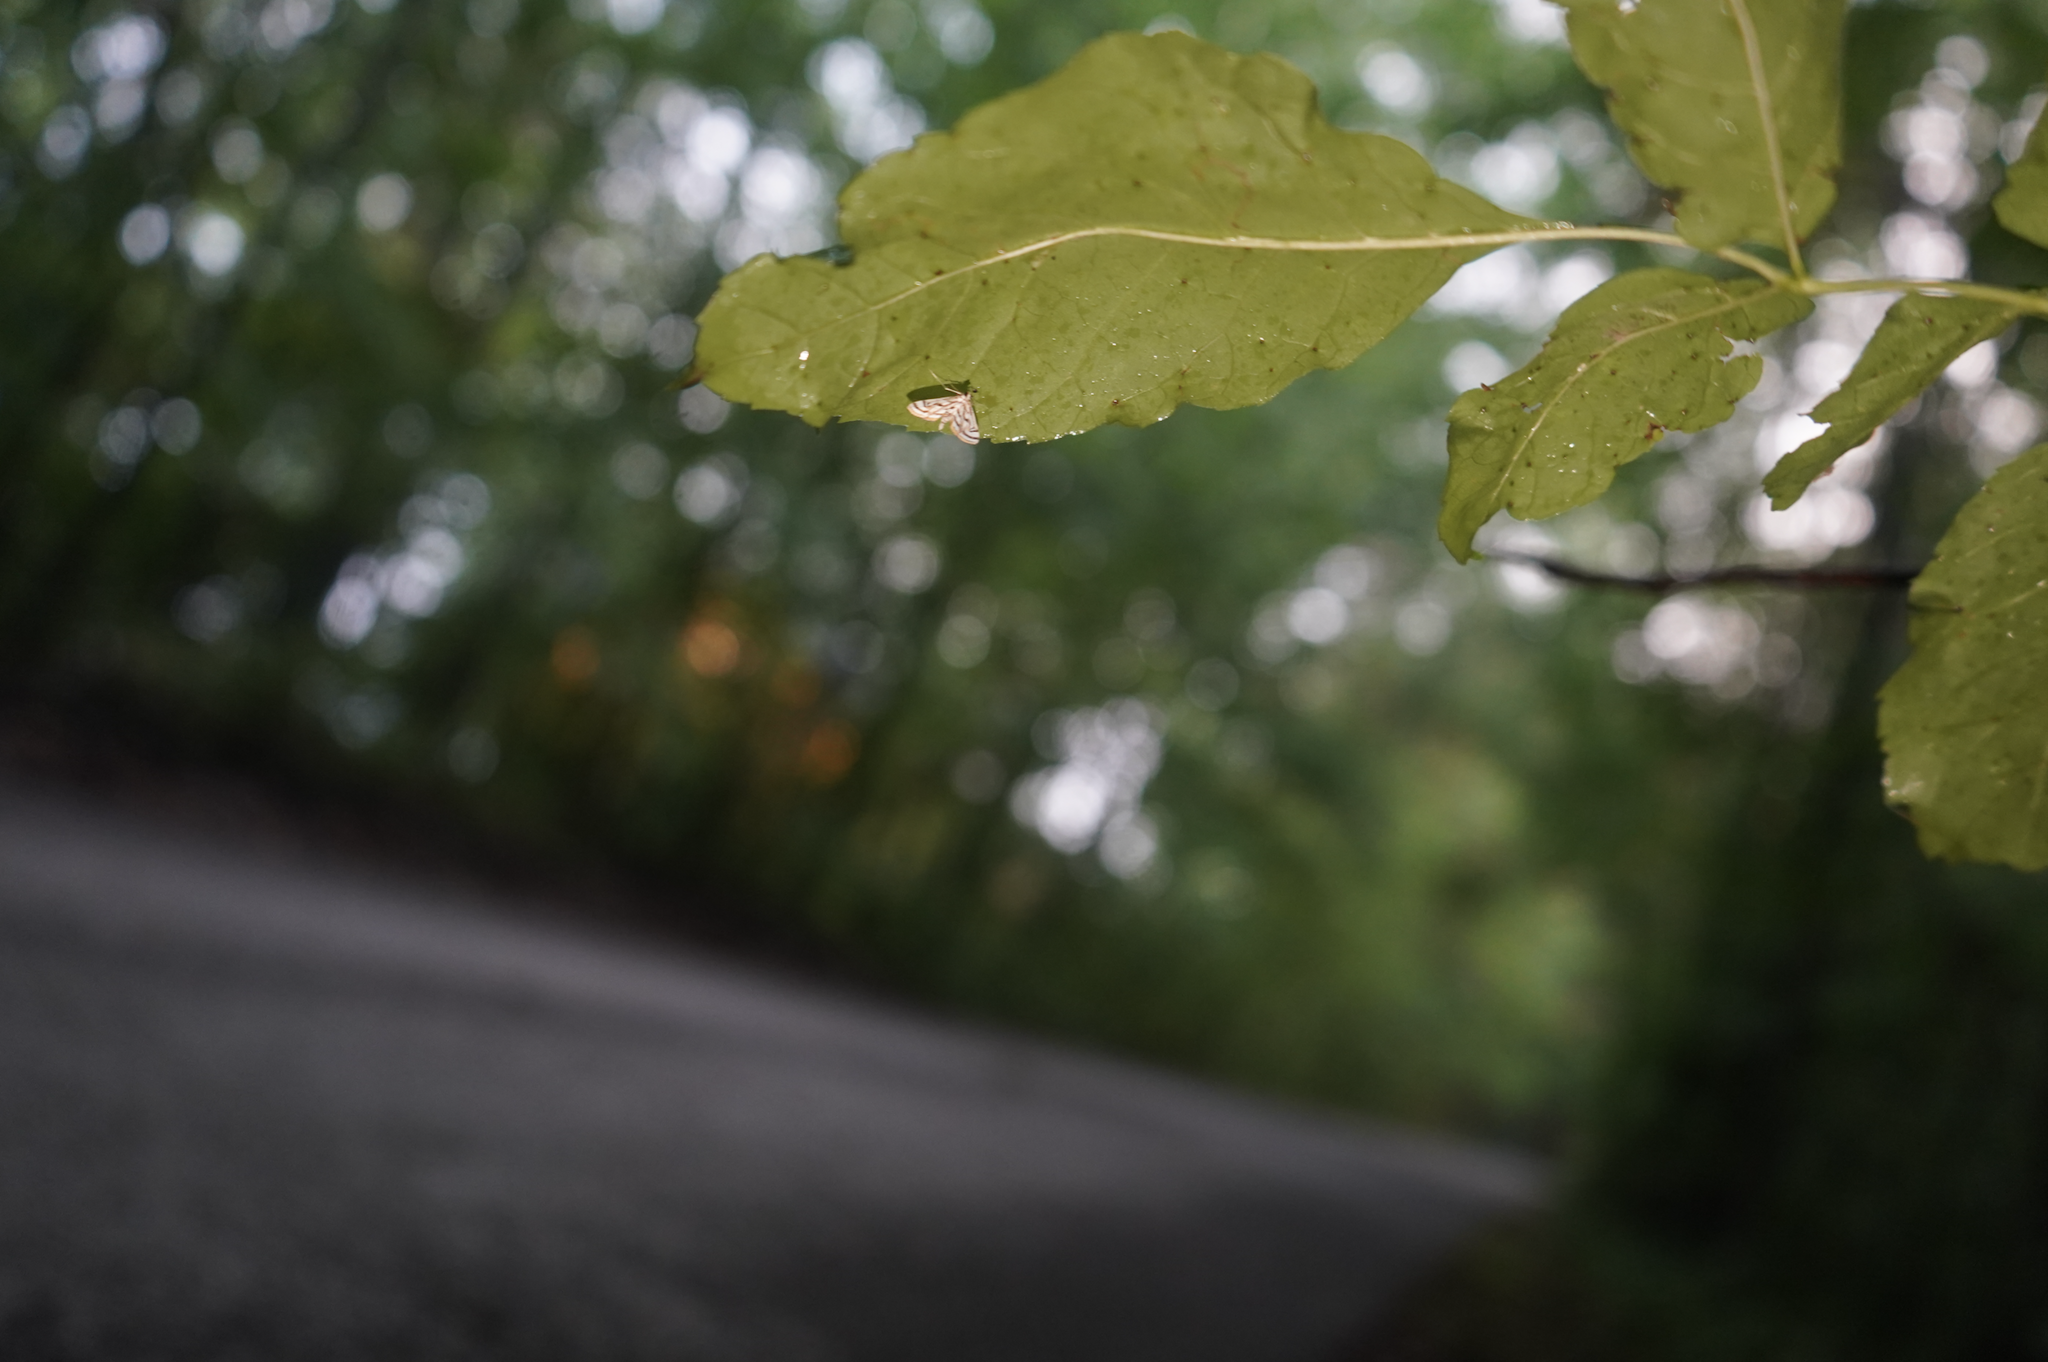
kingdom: Animalia
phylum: Arthropoda
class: Insecta
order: Lepidoptera
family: Crambidae
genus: Parapoynx
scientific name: Parapoynx badiusalis
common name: Chestnut-marked pondweed moth
